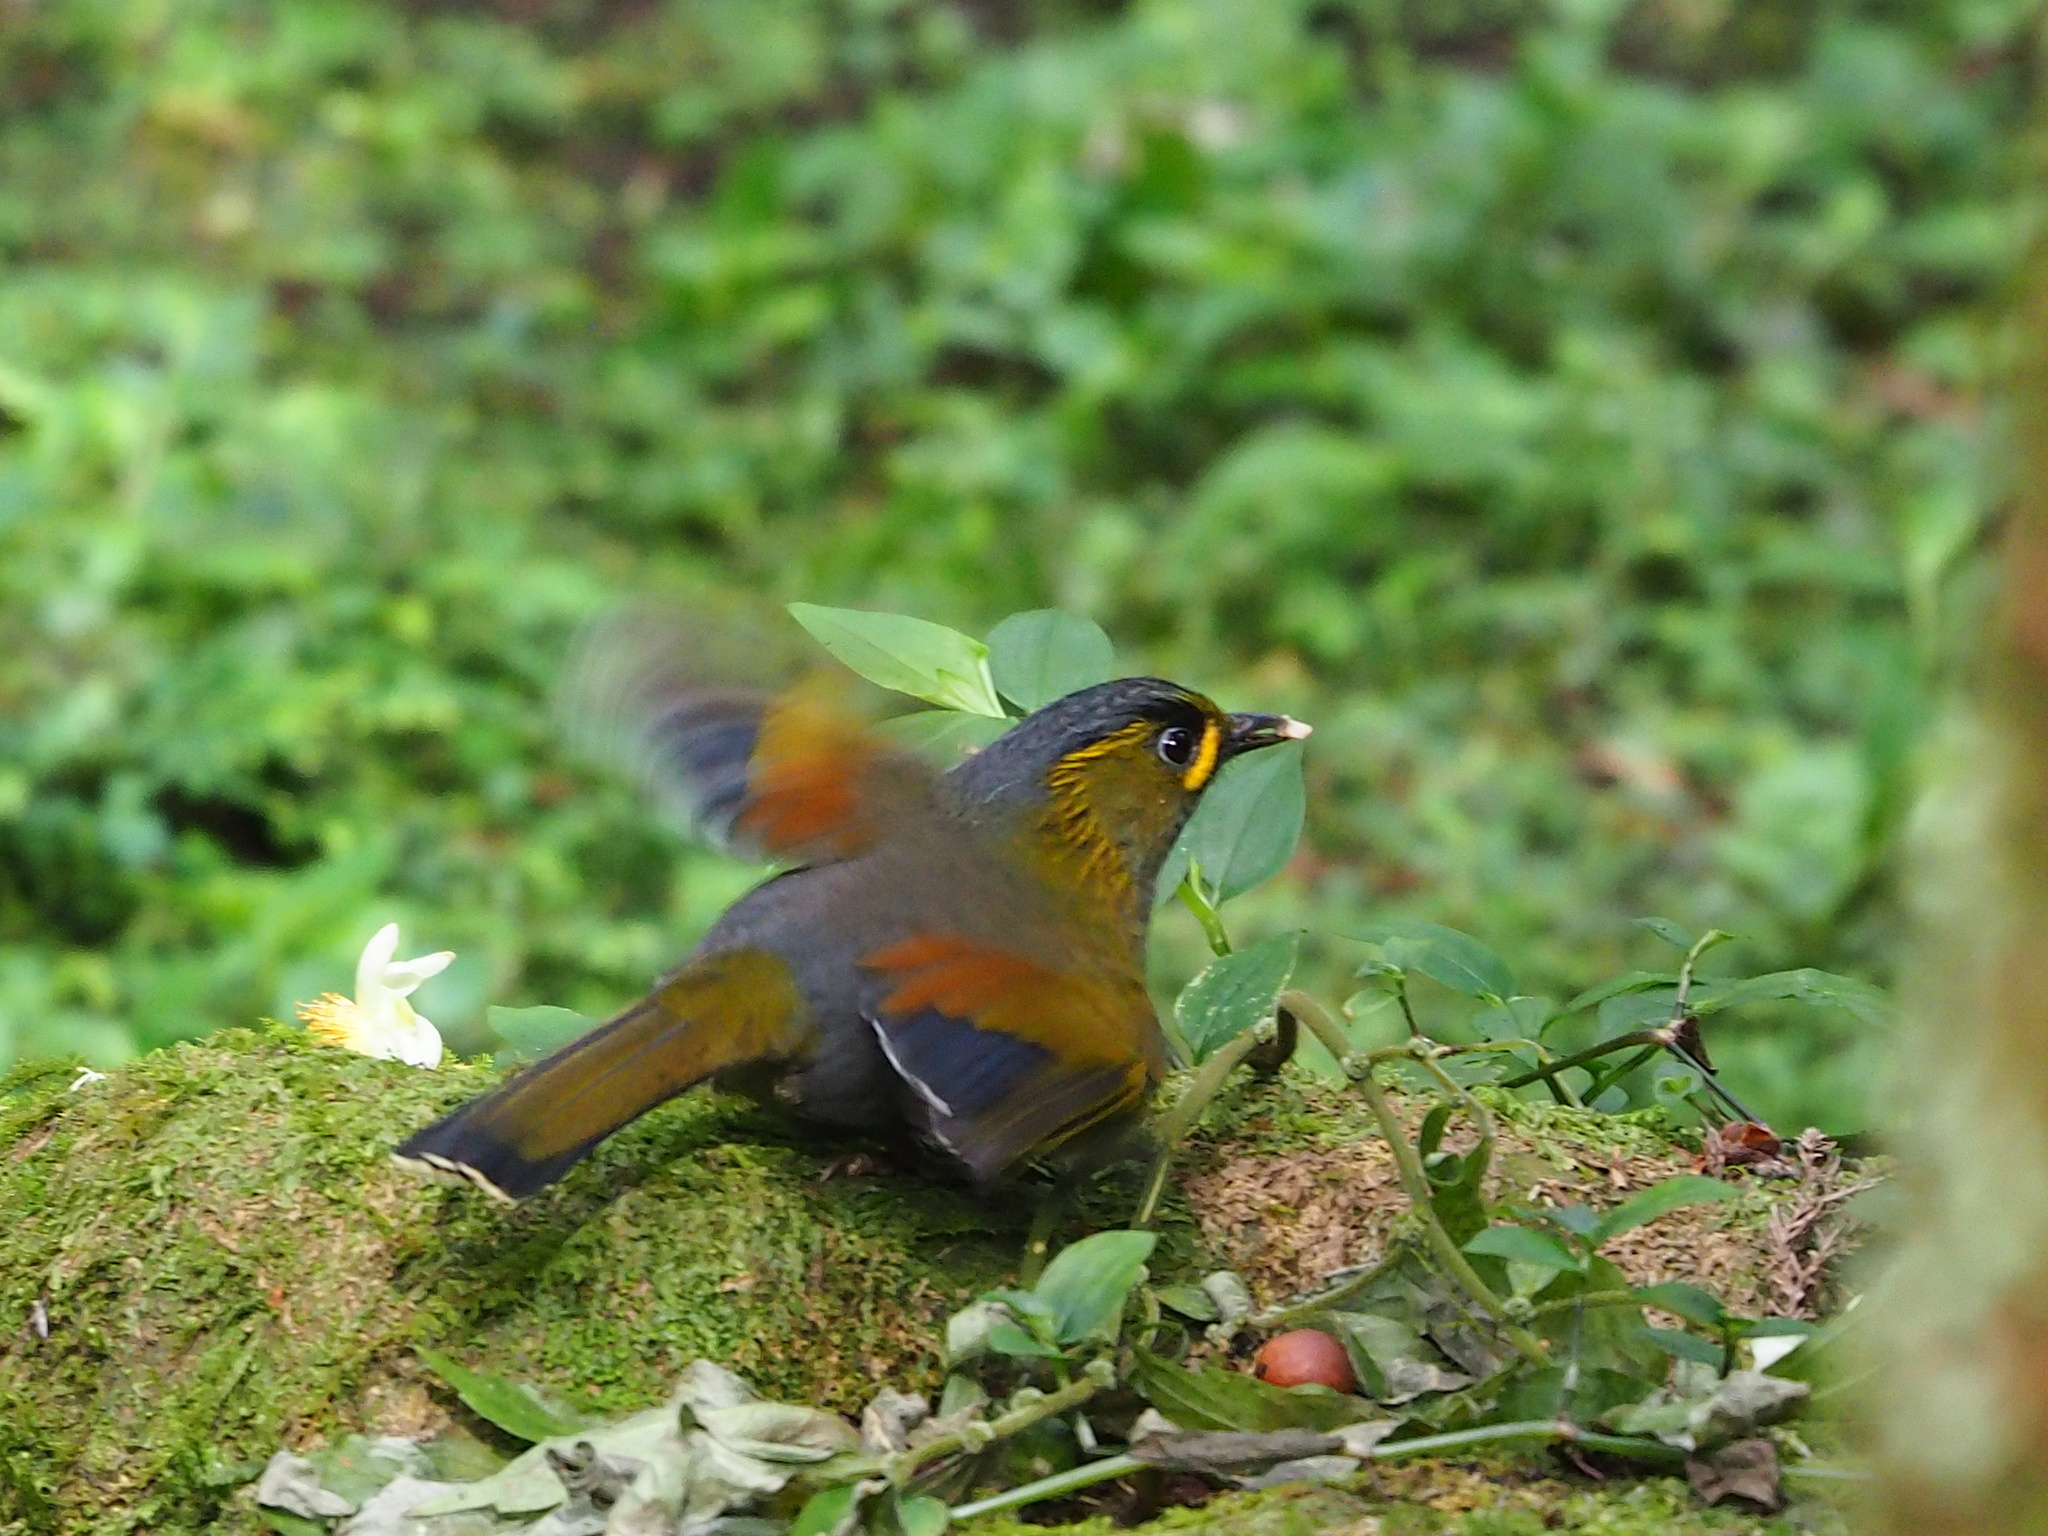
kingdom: Animalia
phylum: Chordata
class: Aves
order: Passeriformes
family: Leiothrichidae
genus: Liocichla
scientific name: Liocichla steerii
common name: Steere's liocichla
